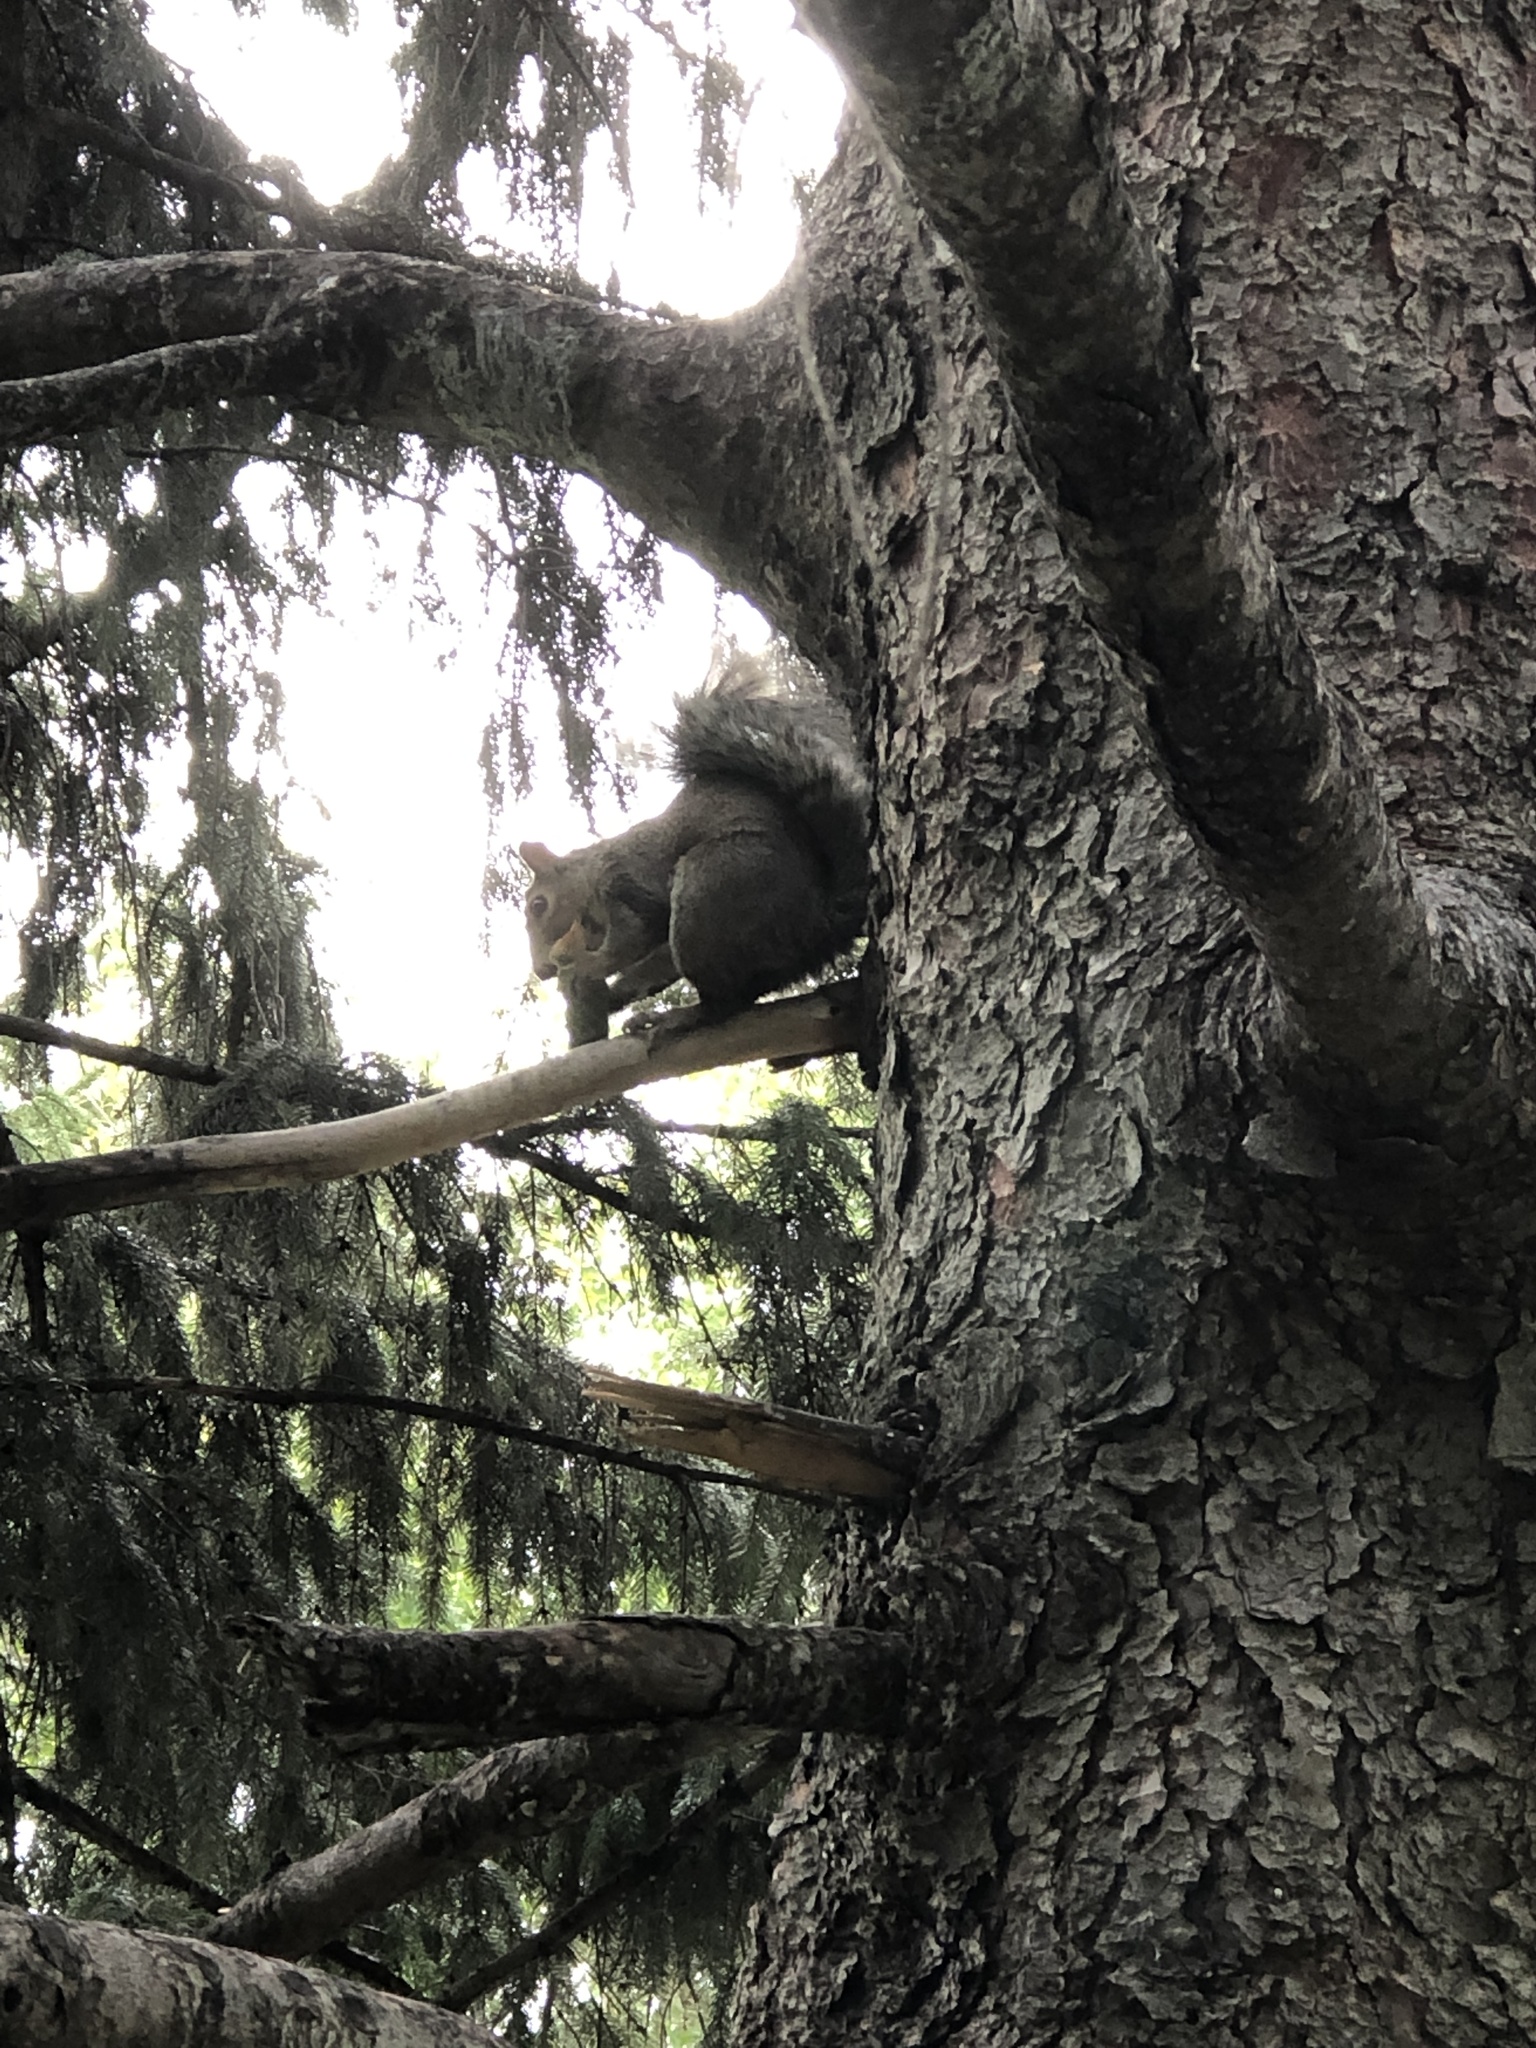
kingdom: Animalia
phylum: Chordata
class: Mammalia
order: Rodentia
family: Sciuridae
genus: Sciurus
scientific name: Sciurus carolinensis
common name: Eastern gray squirrel
